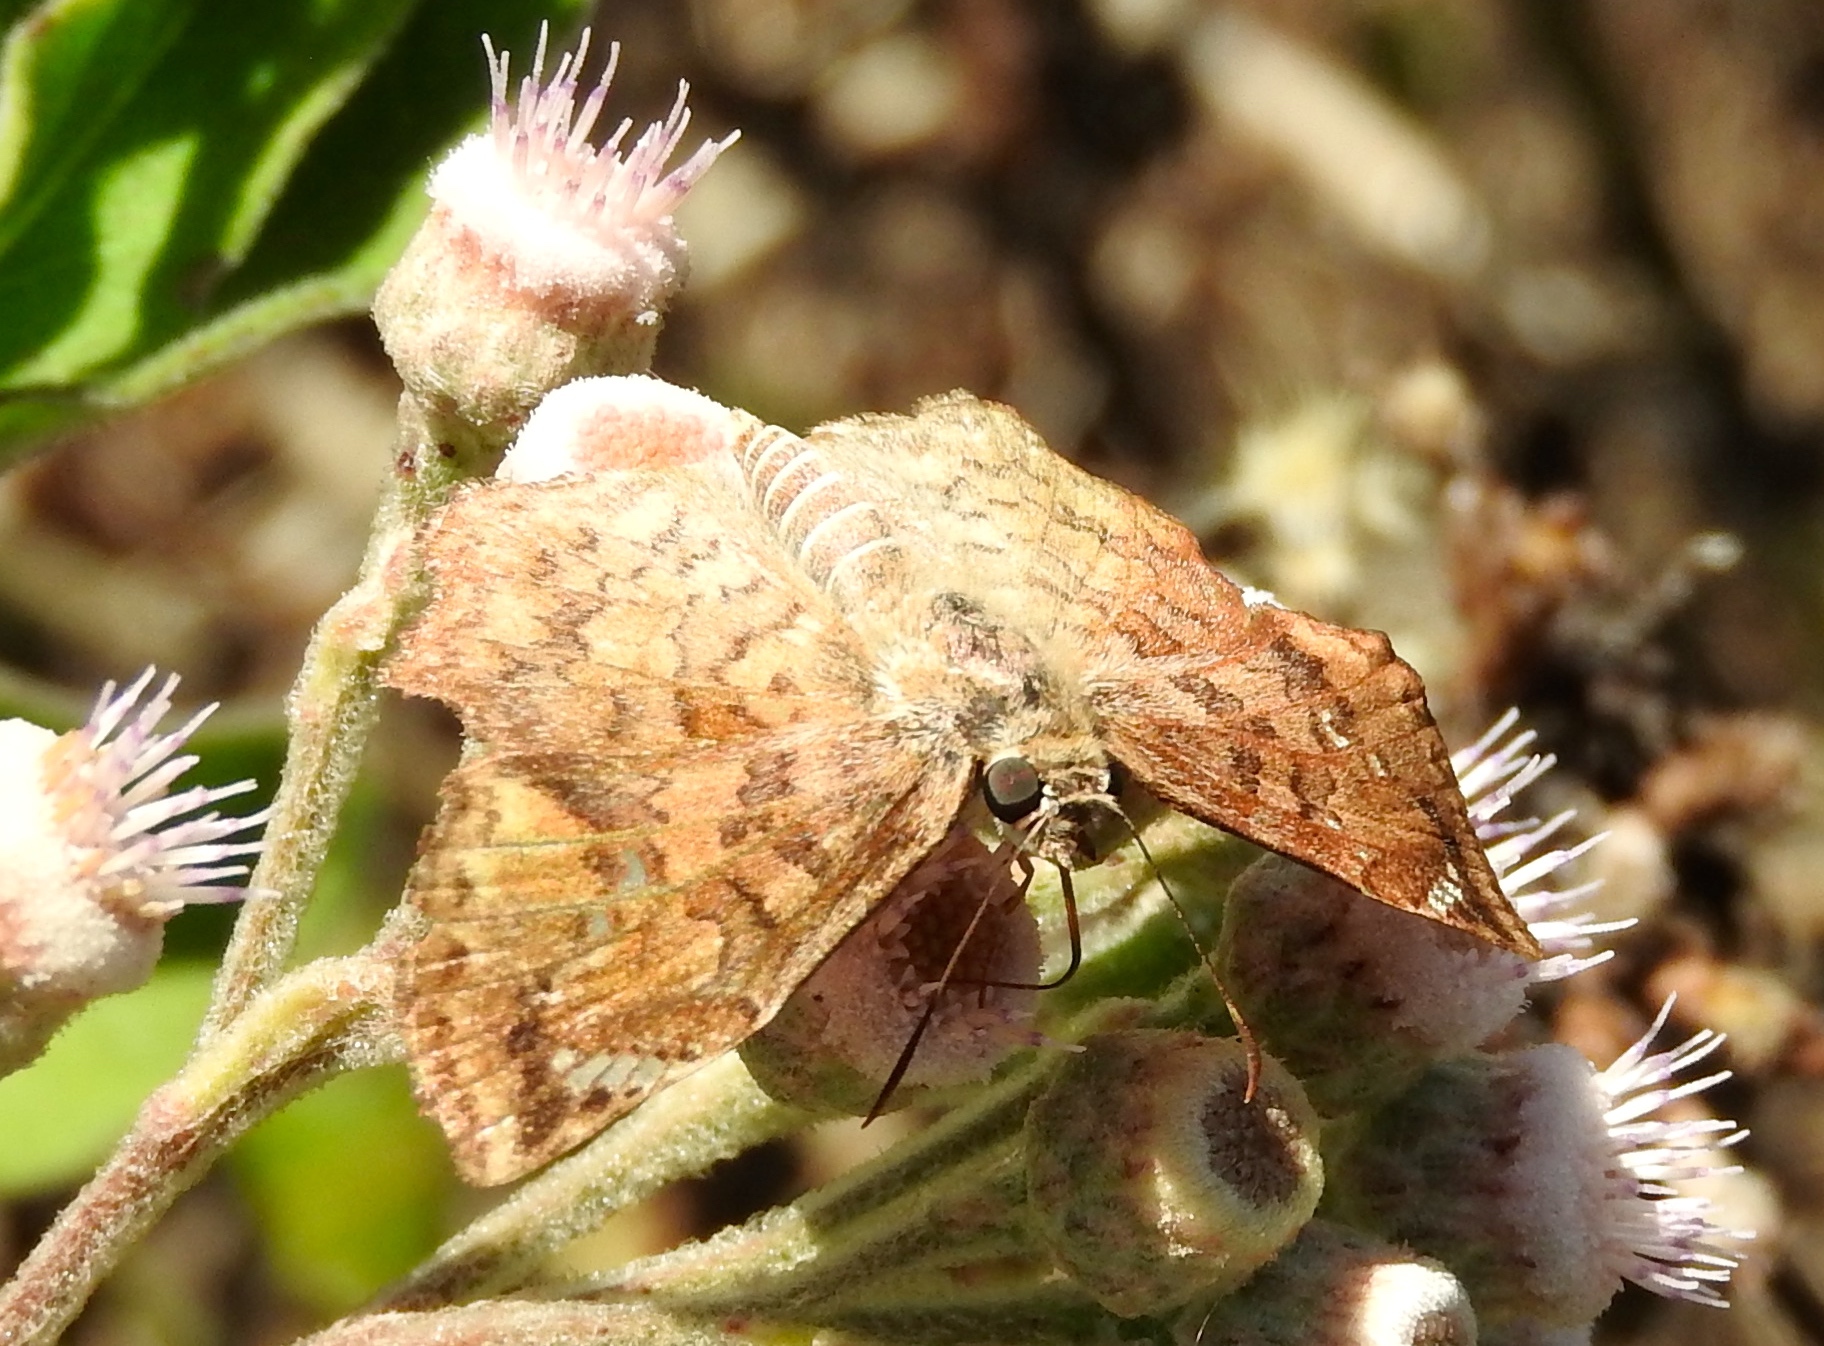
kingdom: Animalia
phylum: Arthropoda
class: Insecta
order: Lepidoptera
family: Hesperiidae
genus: Antigonus
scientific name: Antigonus erosus
